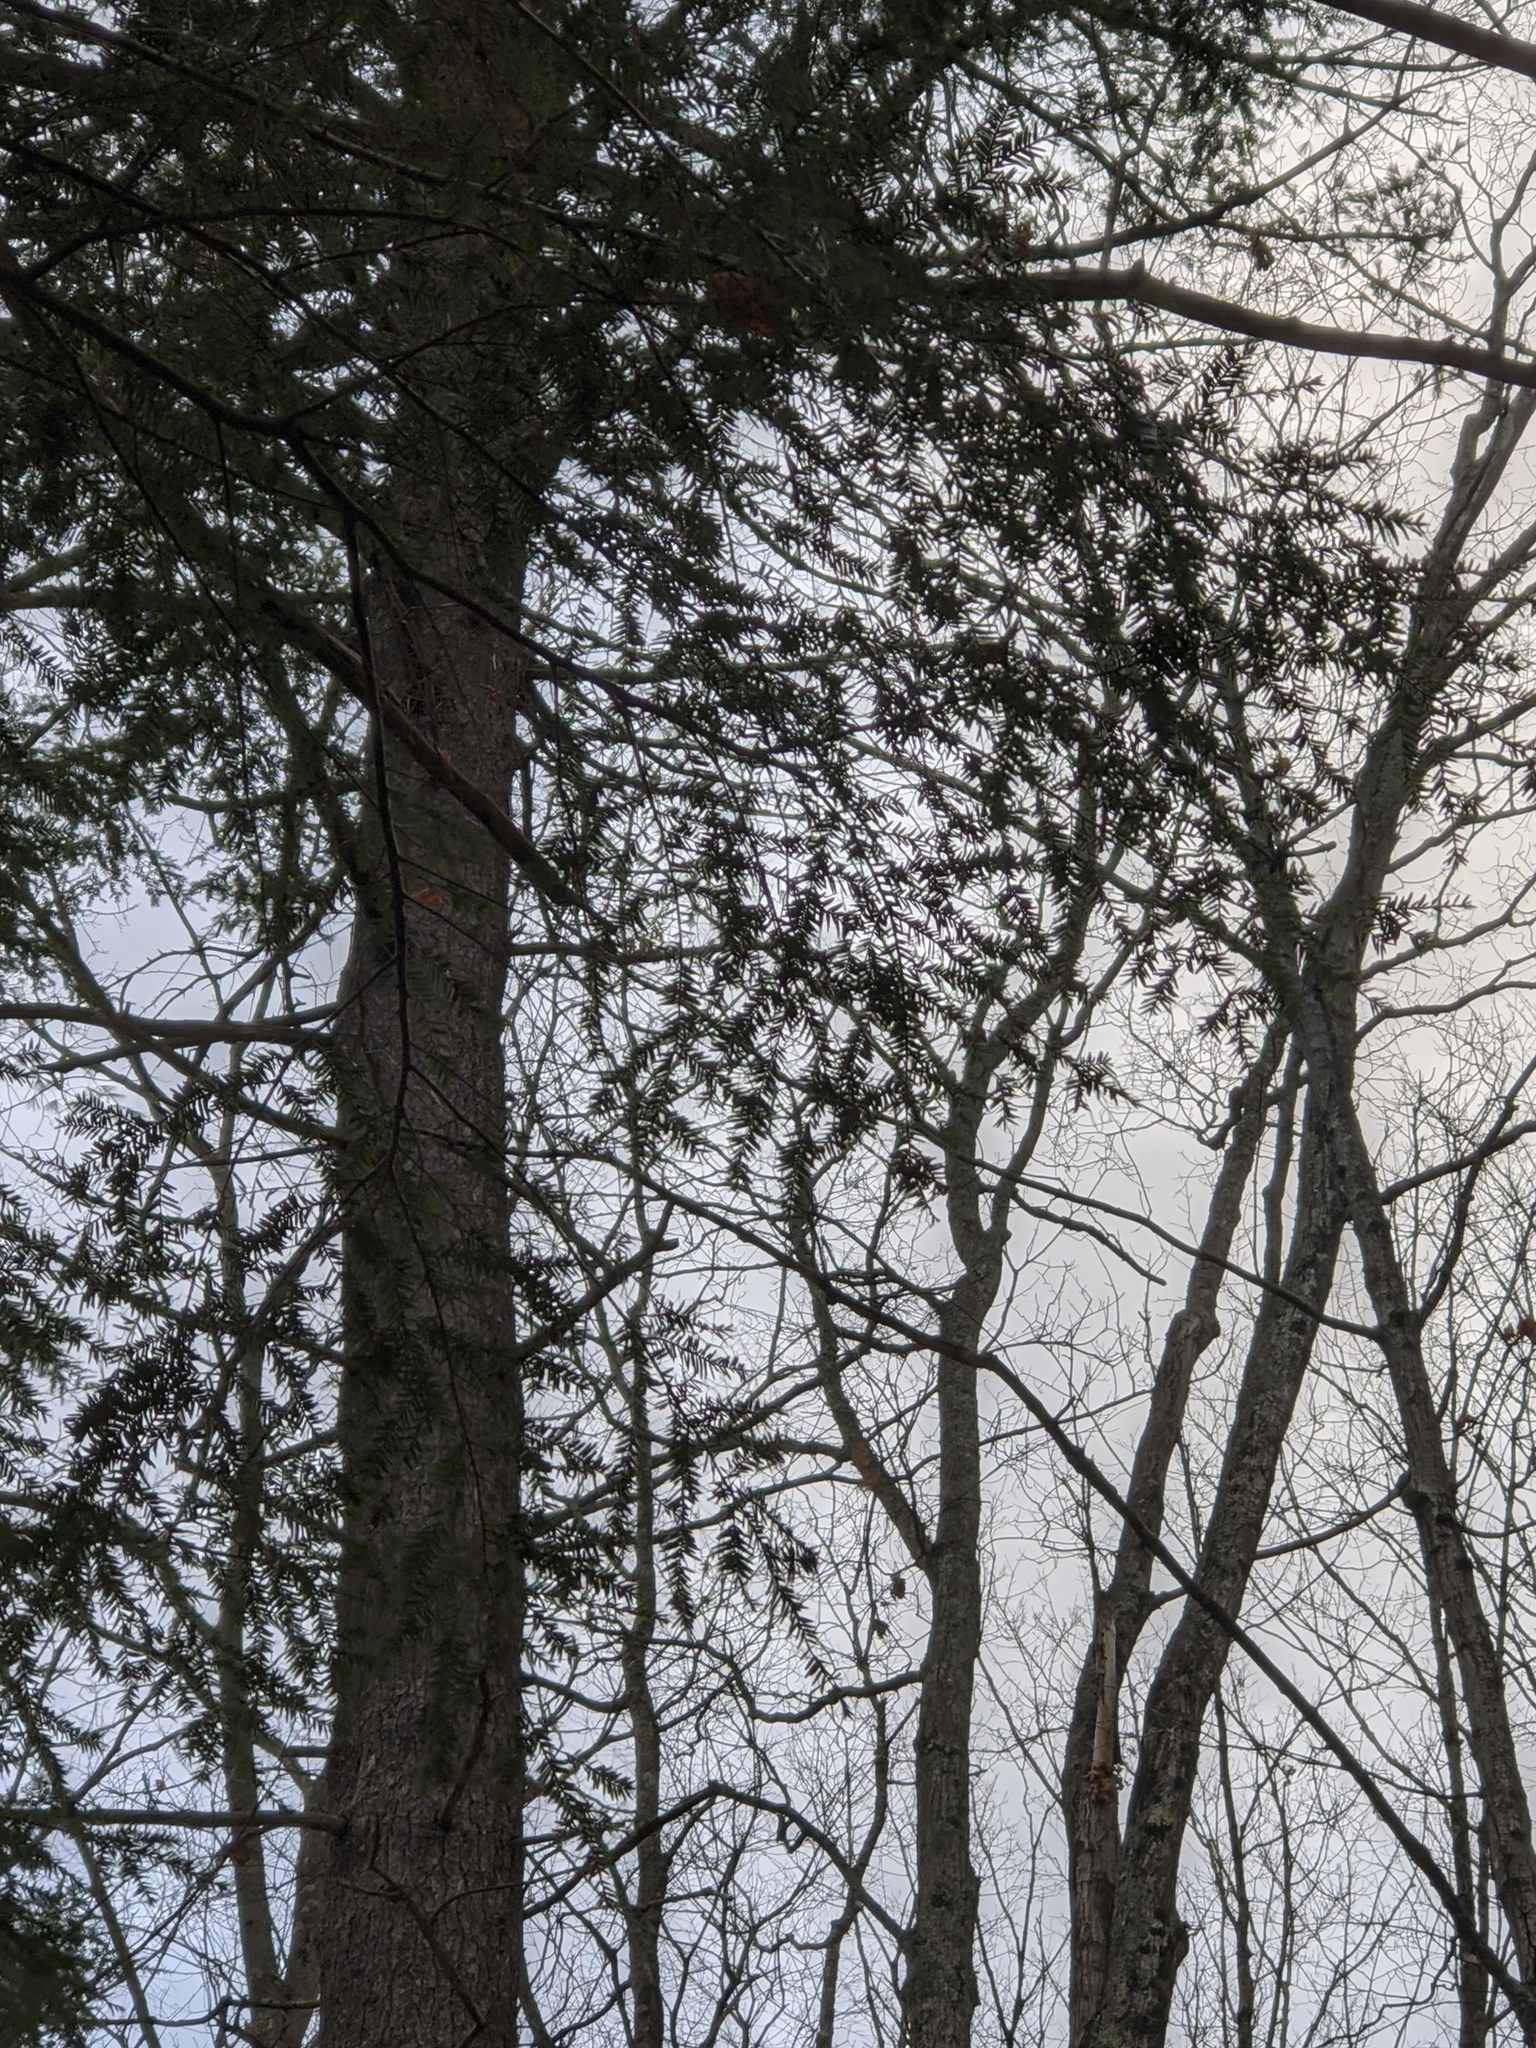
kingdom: Plantae
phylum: Tracheophyta
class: Pinopsida
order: Pinales
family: Pinaceae
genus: Tsuga
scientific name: Tsuga canadensis
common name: Eastern hemlock
